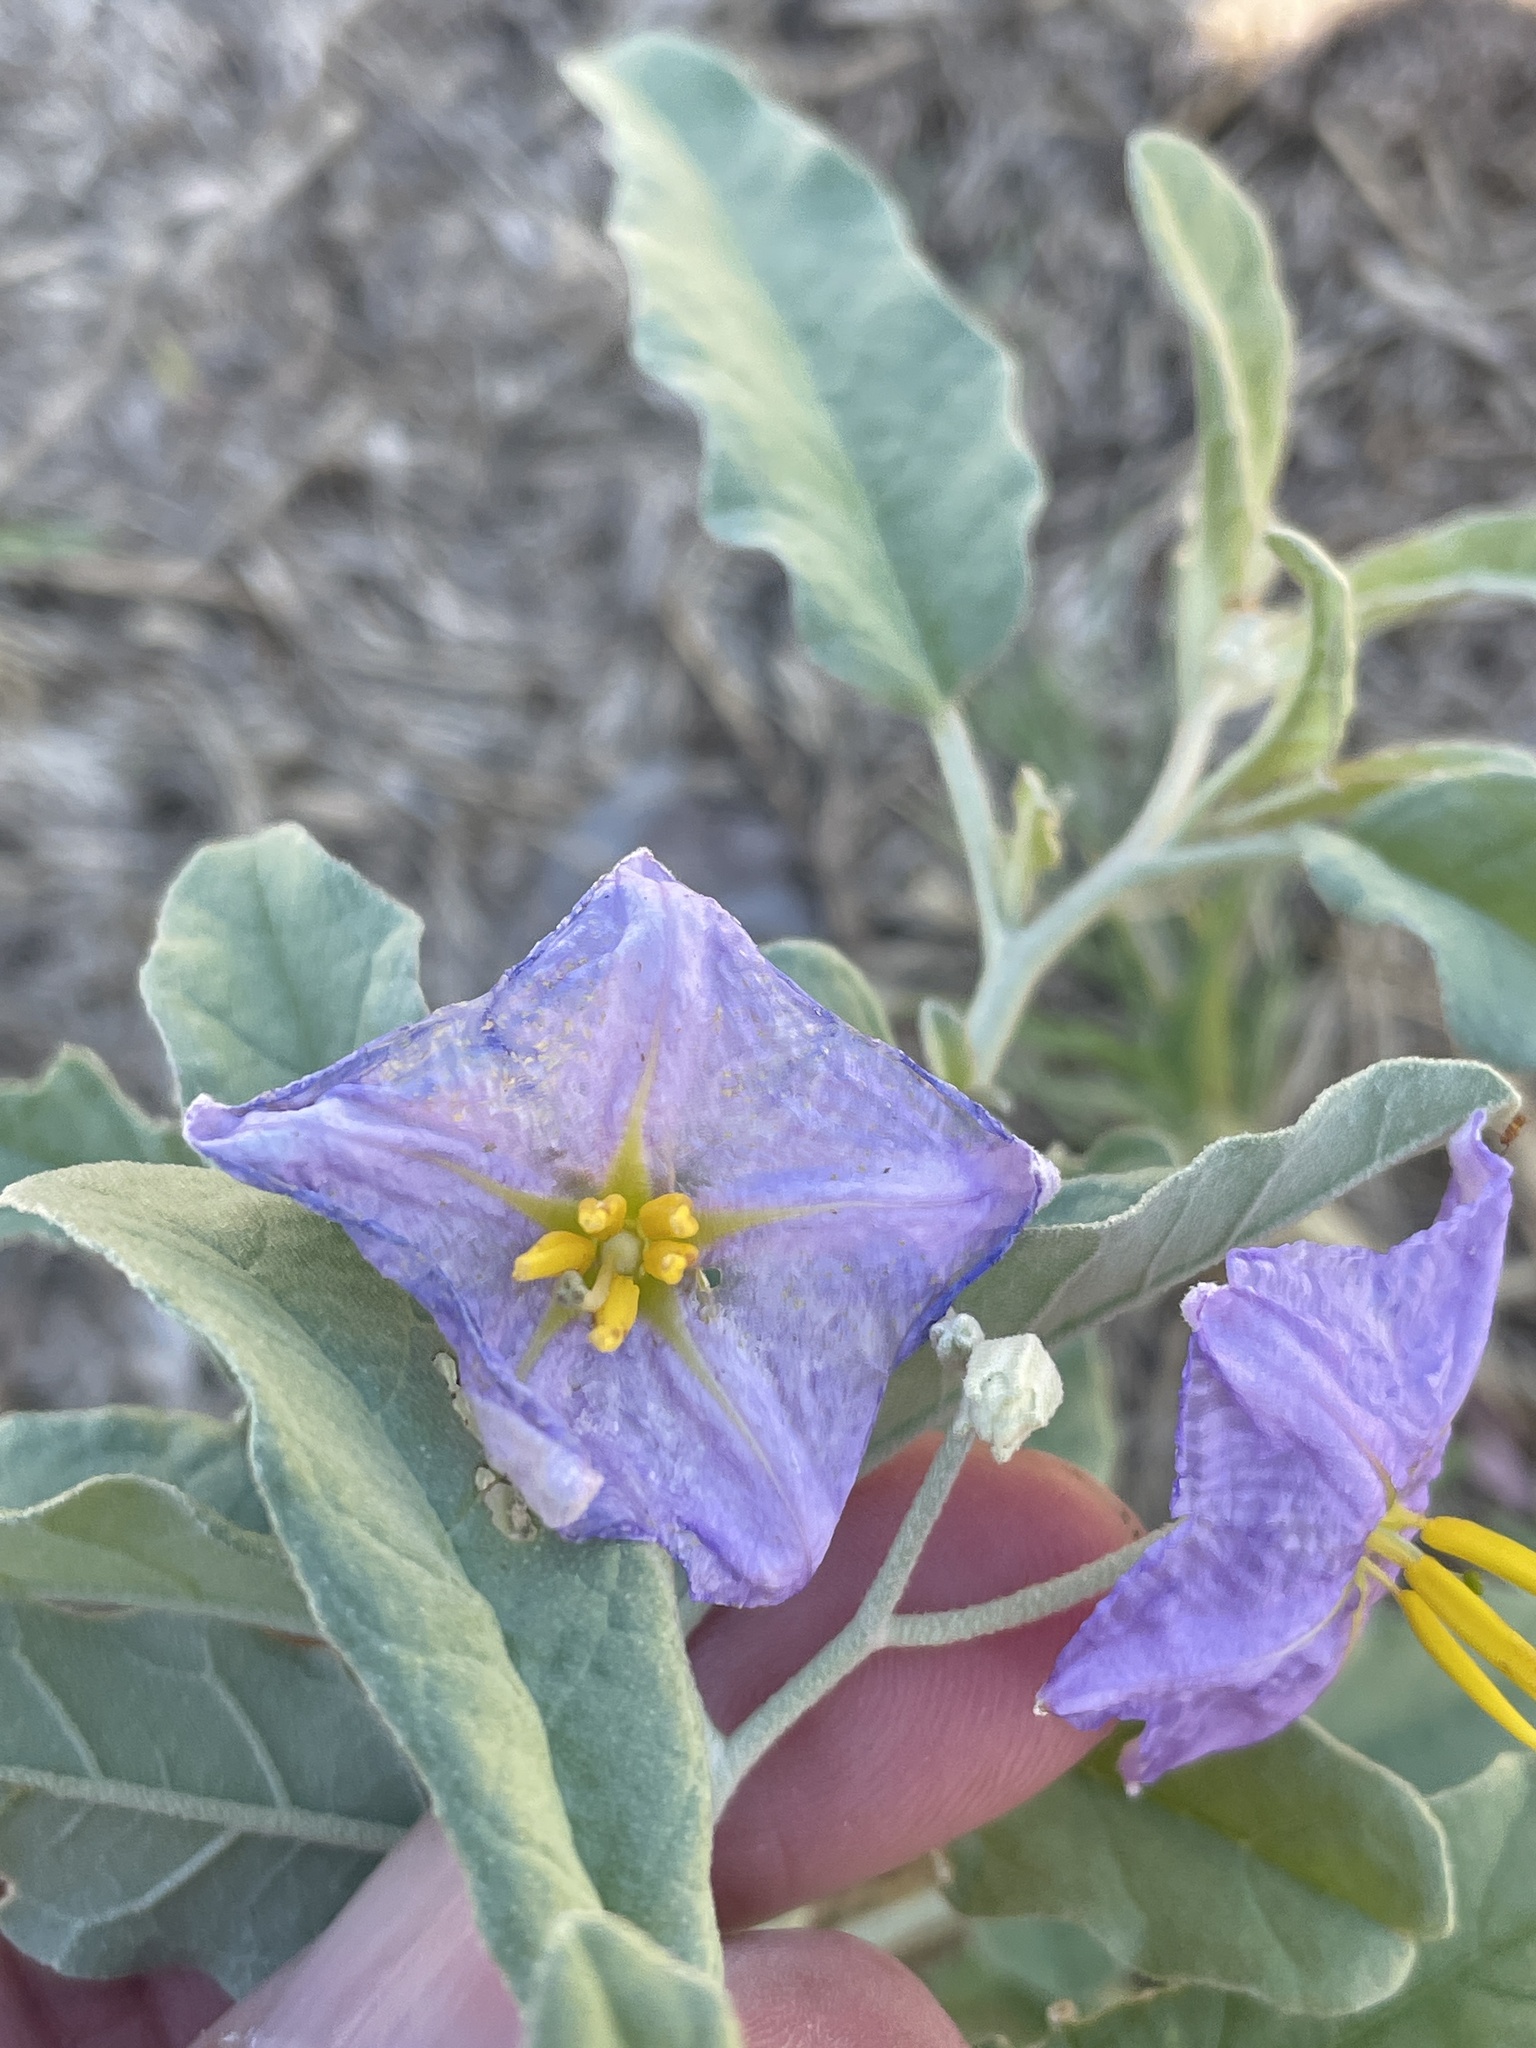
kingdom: Plantae
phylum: Tracheophyta
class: Magnoliopsida
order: Solanales
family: Solanaceae
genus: Solanum
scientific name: Solanum elaeagnifolium
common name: Silverleaf nightshade
